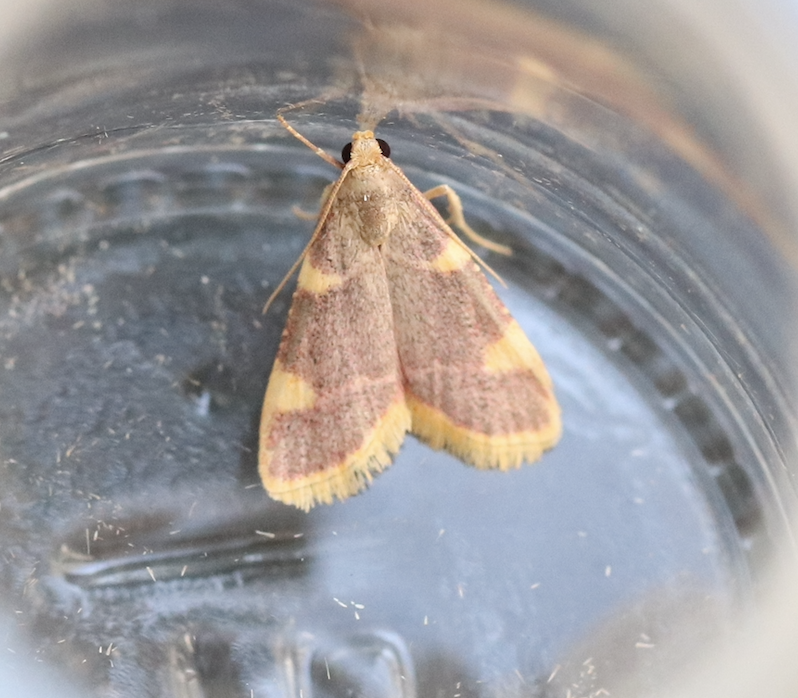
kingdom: Animalia
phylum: Arthropoda
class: Insecta
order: Lepidoptera
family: Pyralidae
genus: Hypsopygia
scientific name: Hypsopygia costalis
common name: Gold triangle
